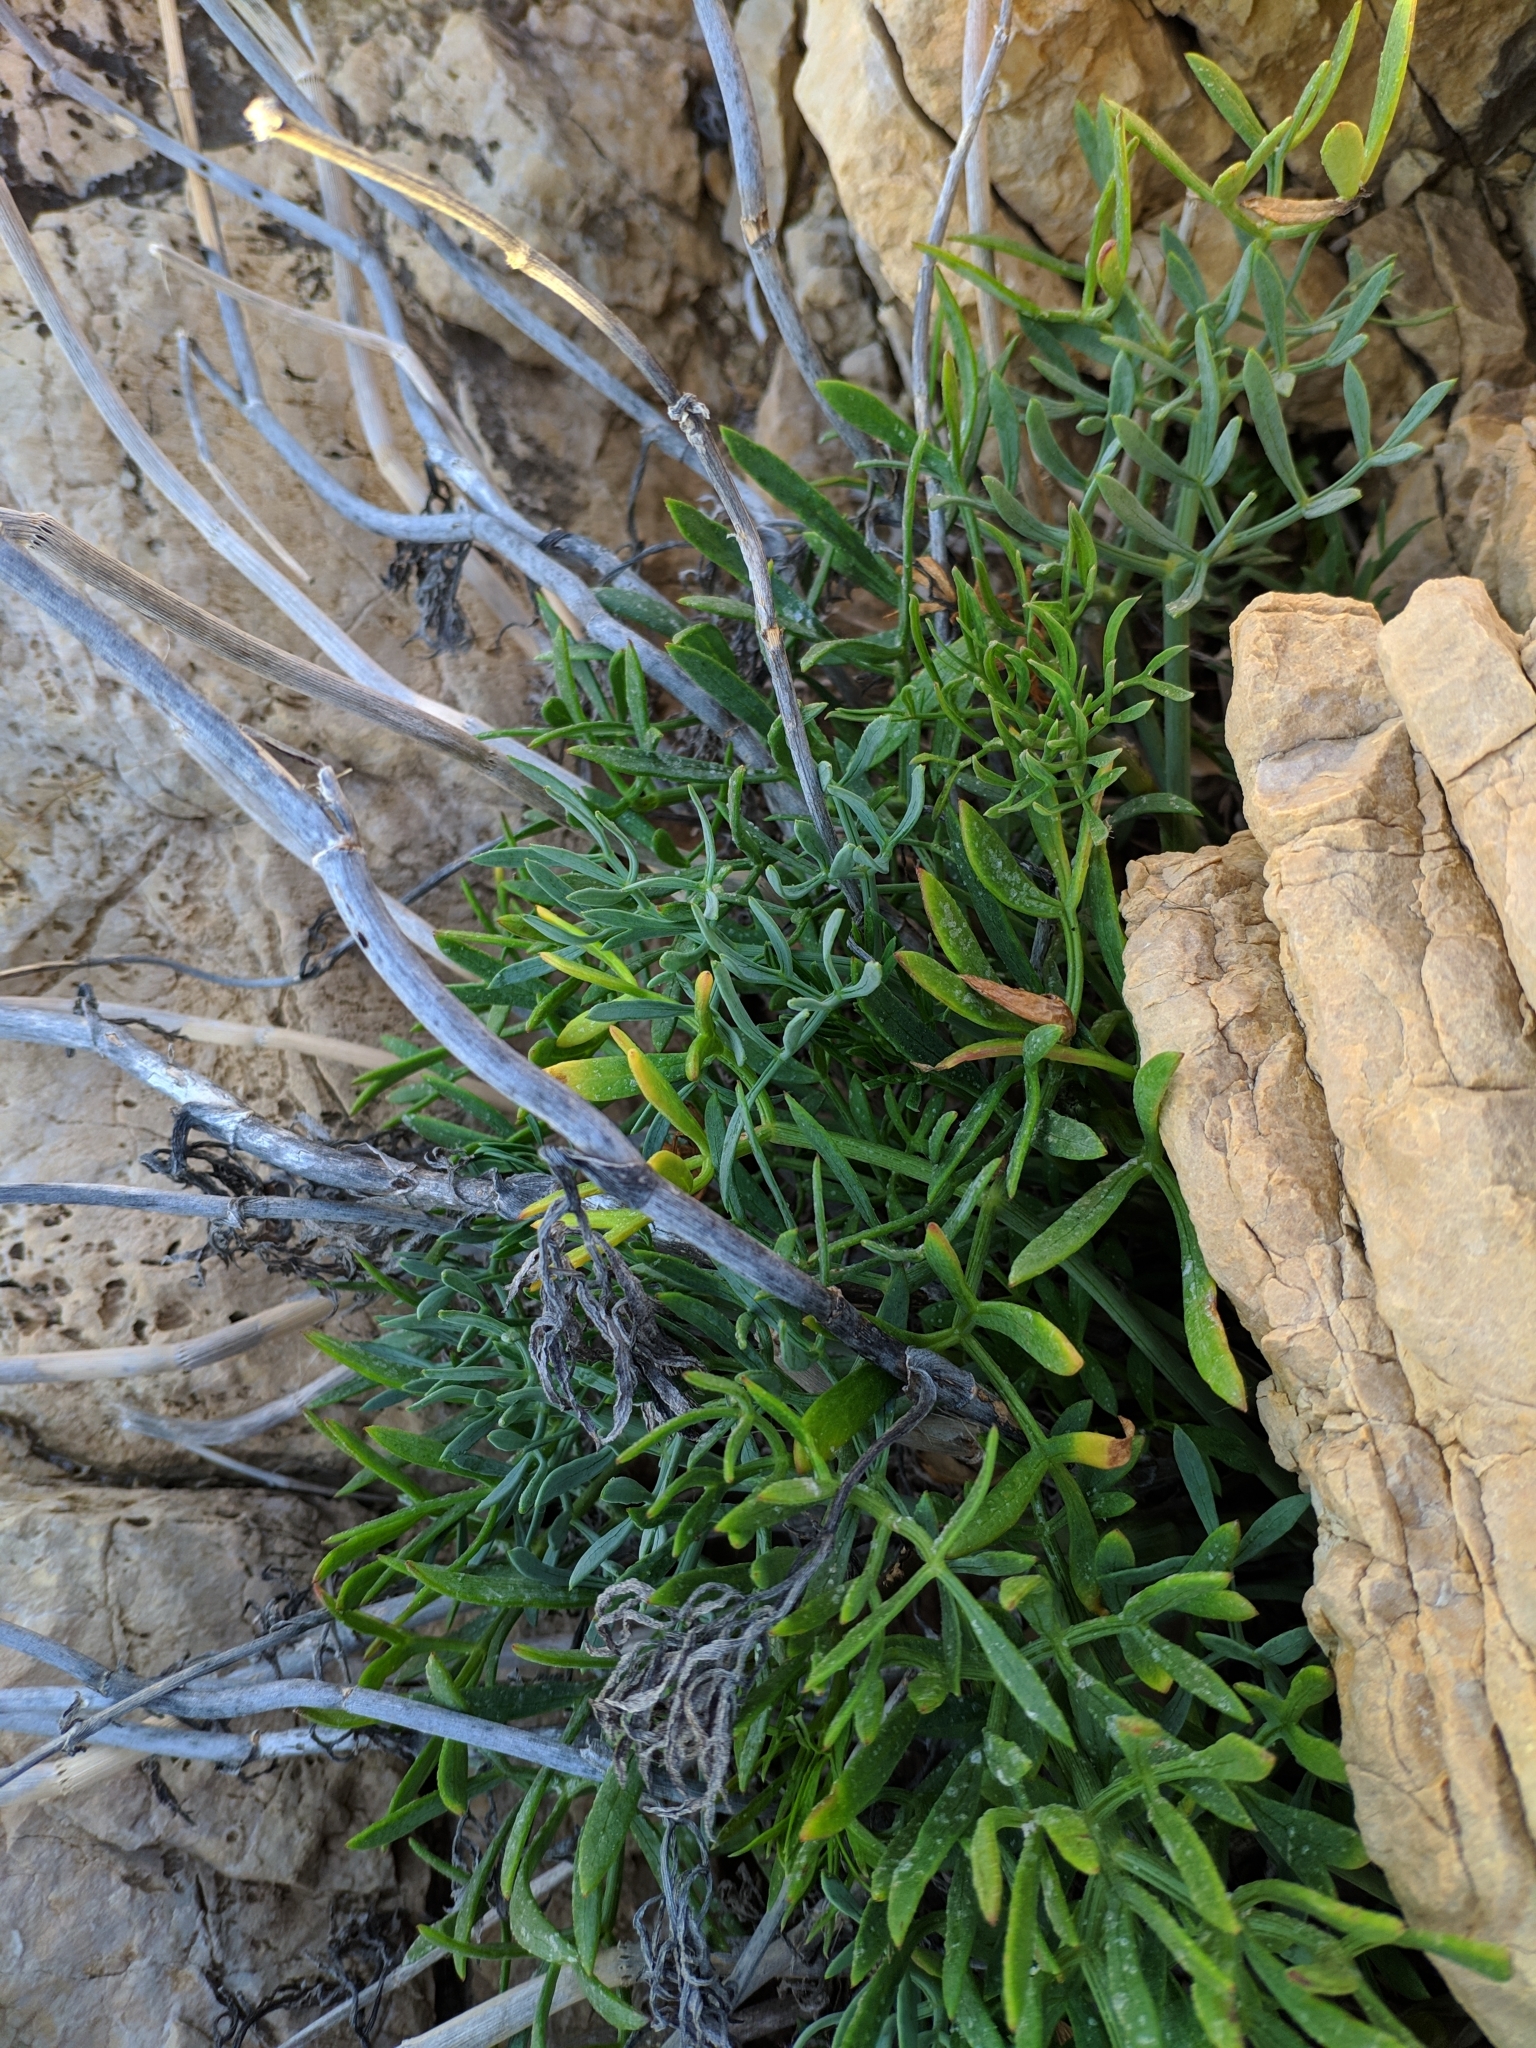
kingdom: Plantae
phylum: Tracheophyta
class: Magnoliopsida
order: Apiales
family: Apiaceae
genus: Crithmum
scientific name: Crithmum maritimum
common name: Rock samphire
